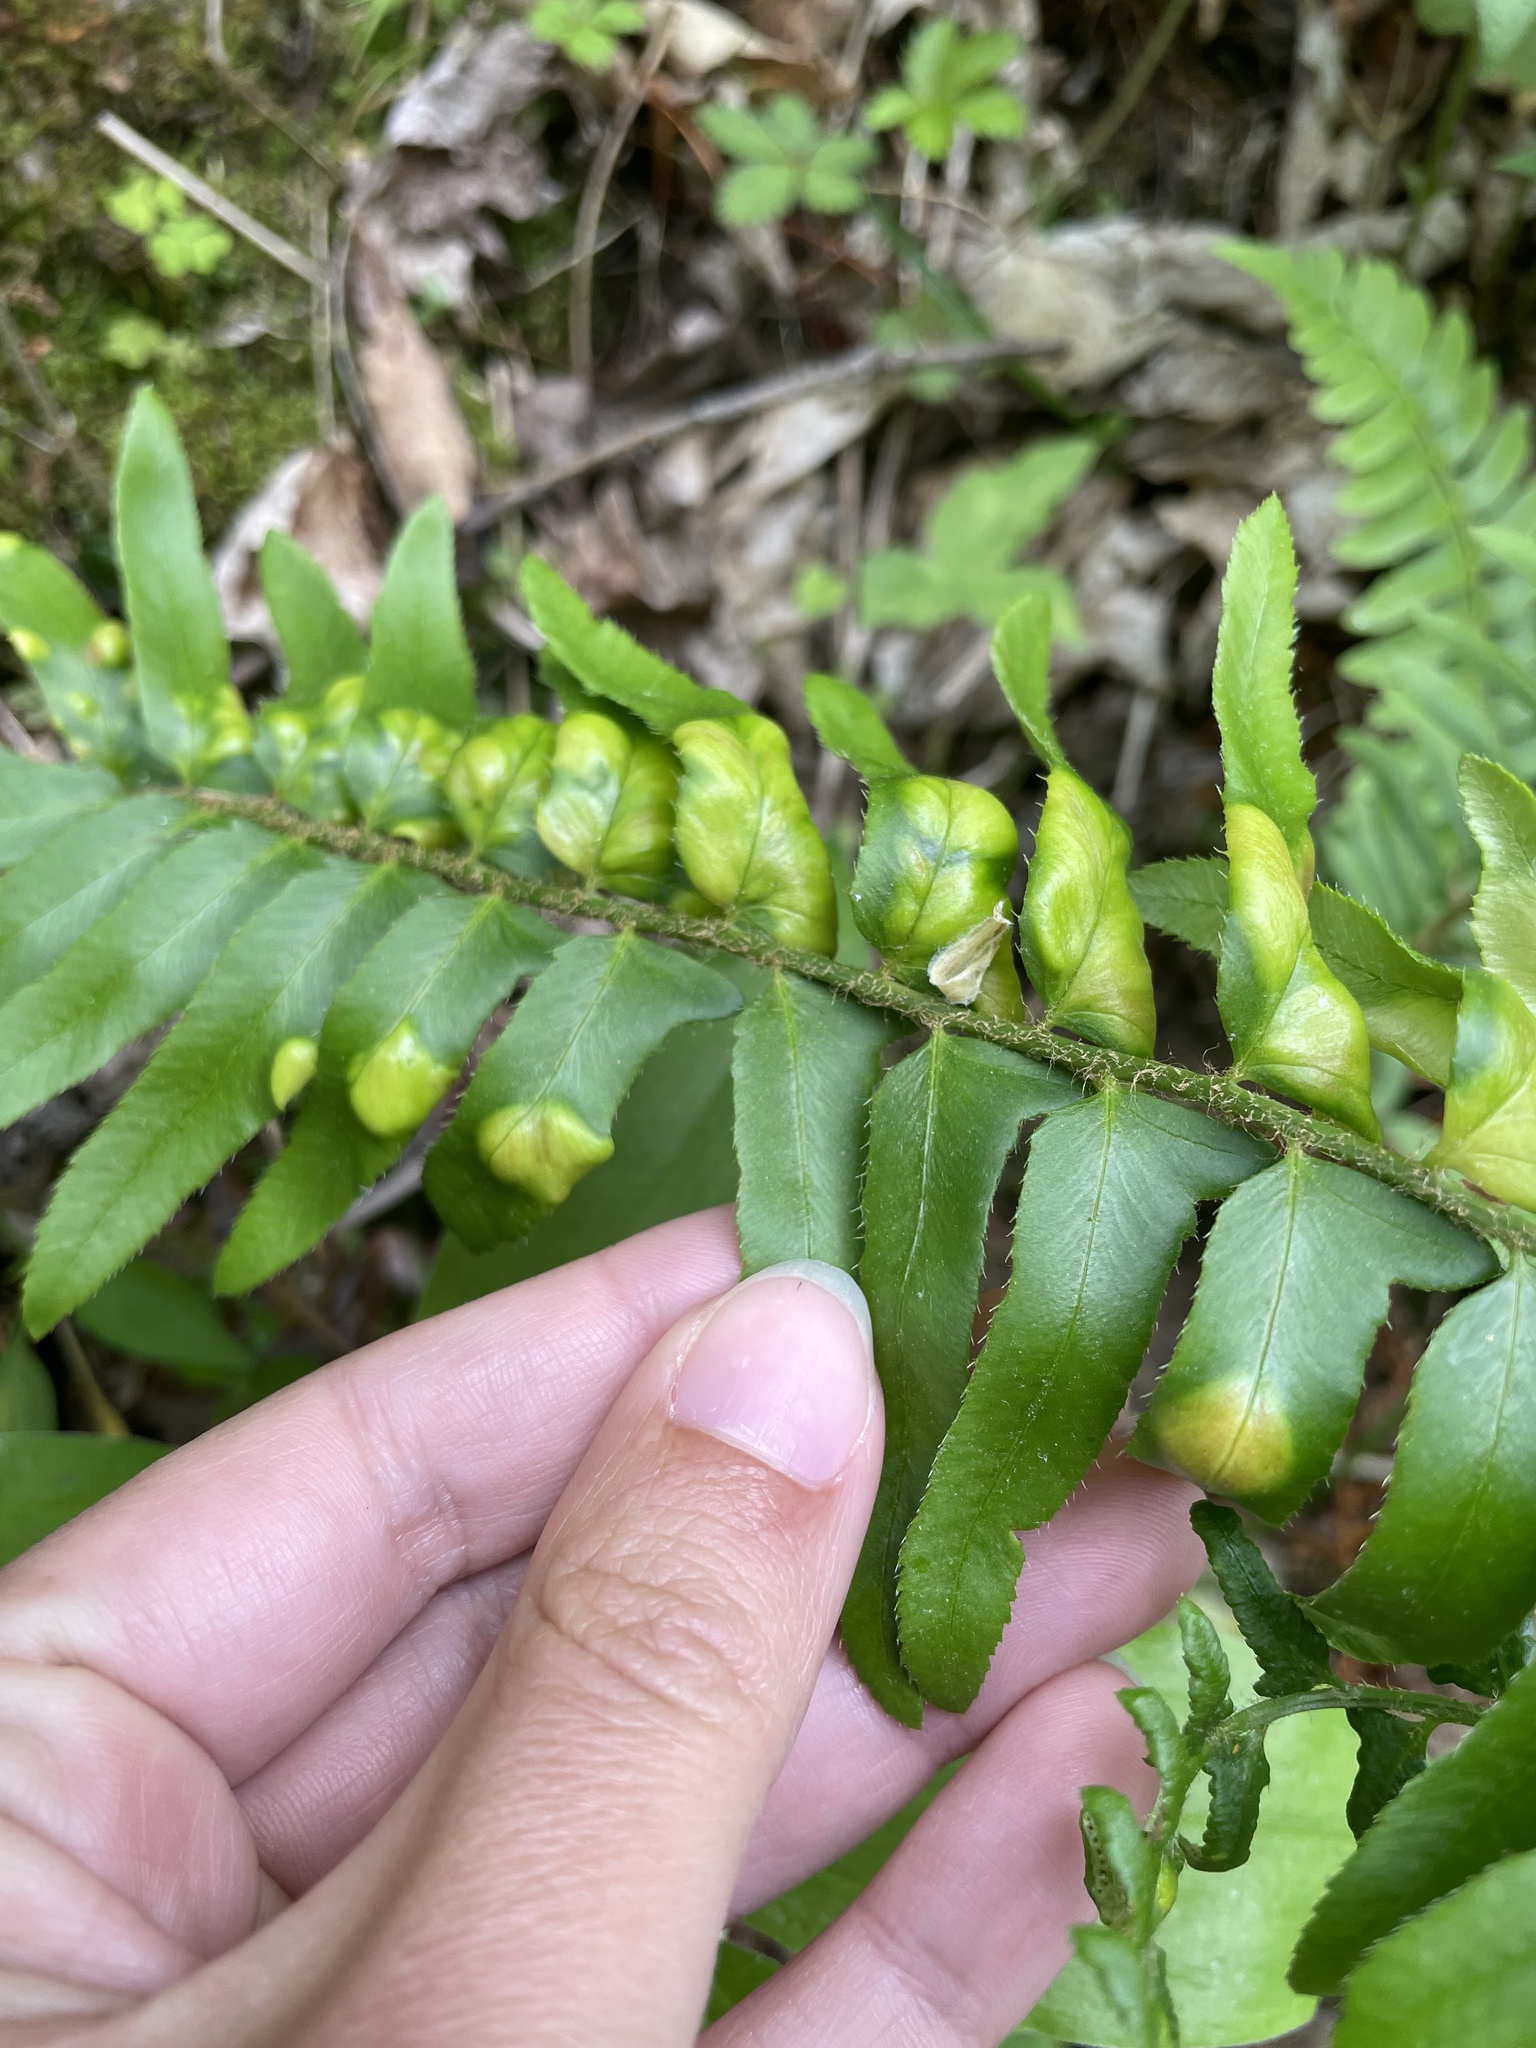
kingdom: Fungi
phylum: Ascomycota
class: Taphrinomycetes
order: Taphrinales
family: Taphrinaceae
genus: Taphrina
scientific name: Taphrina polystichi
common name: Christmas fern leaf curl
